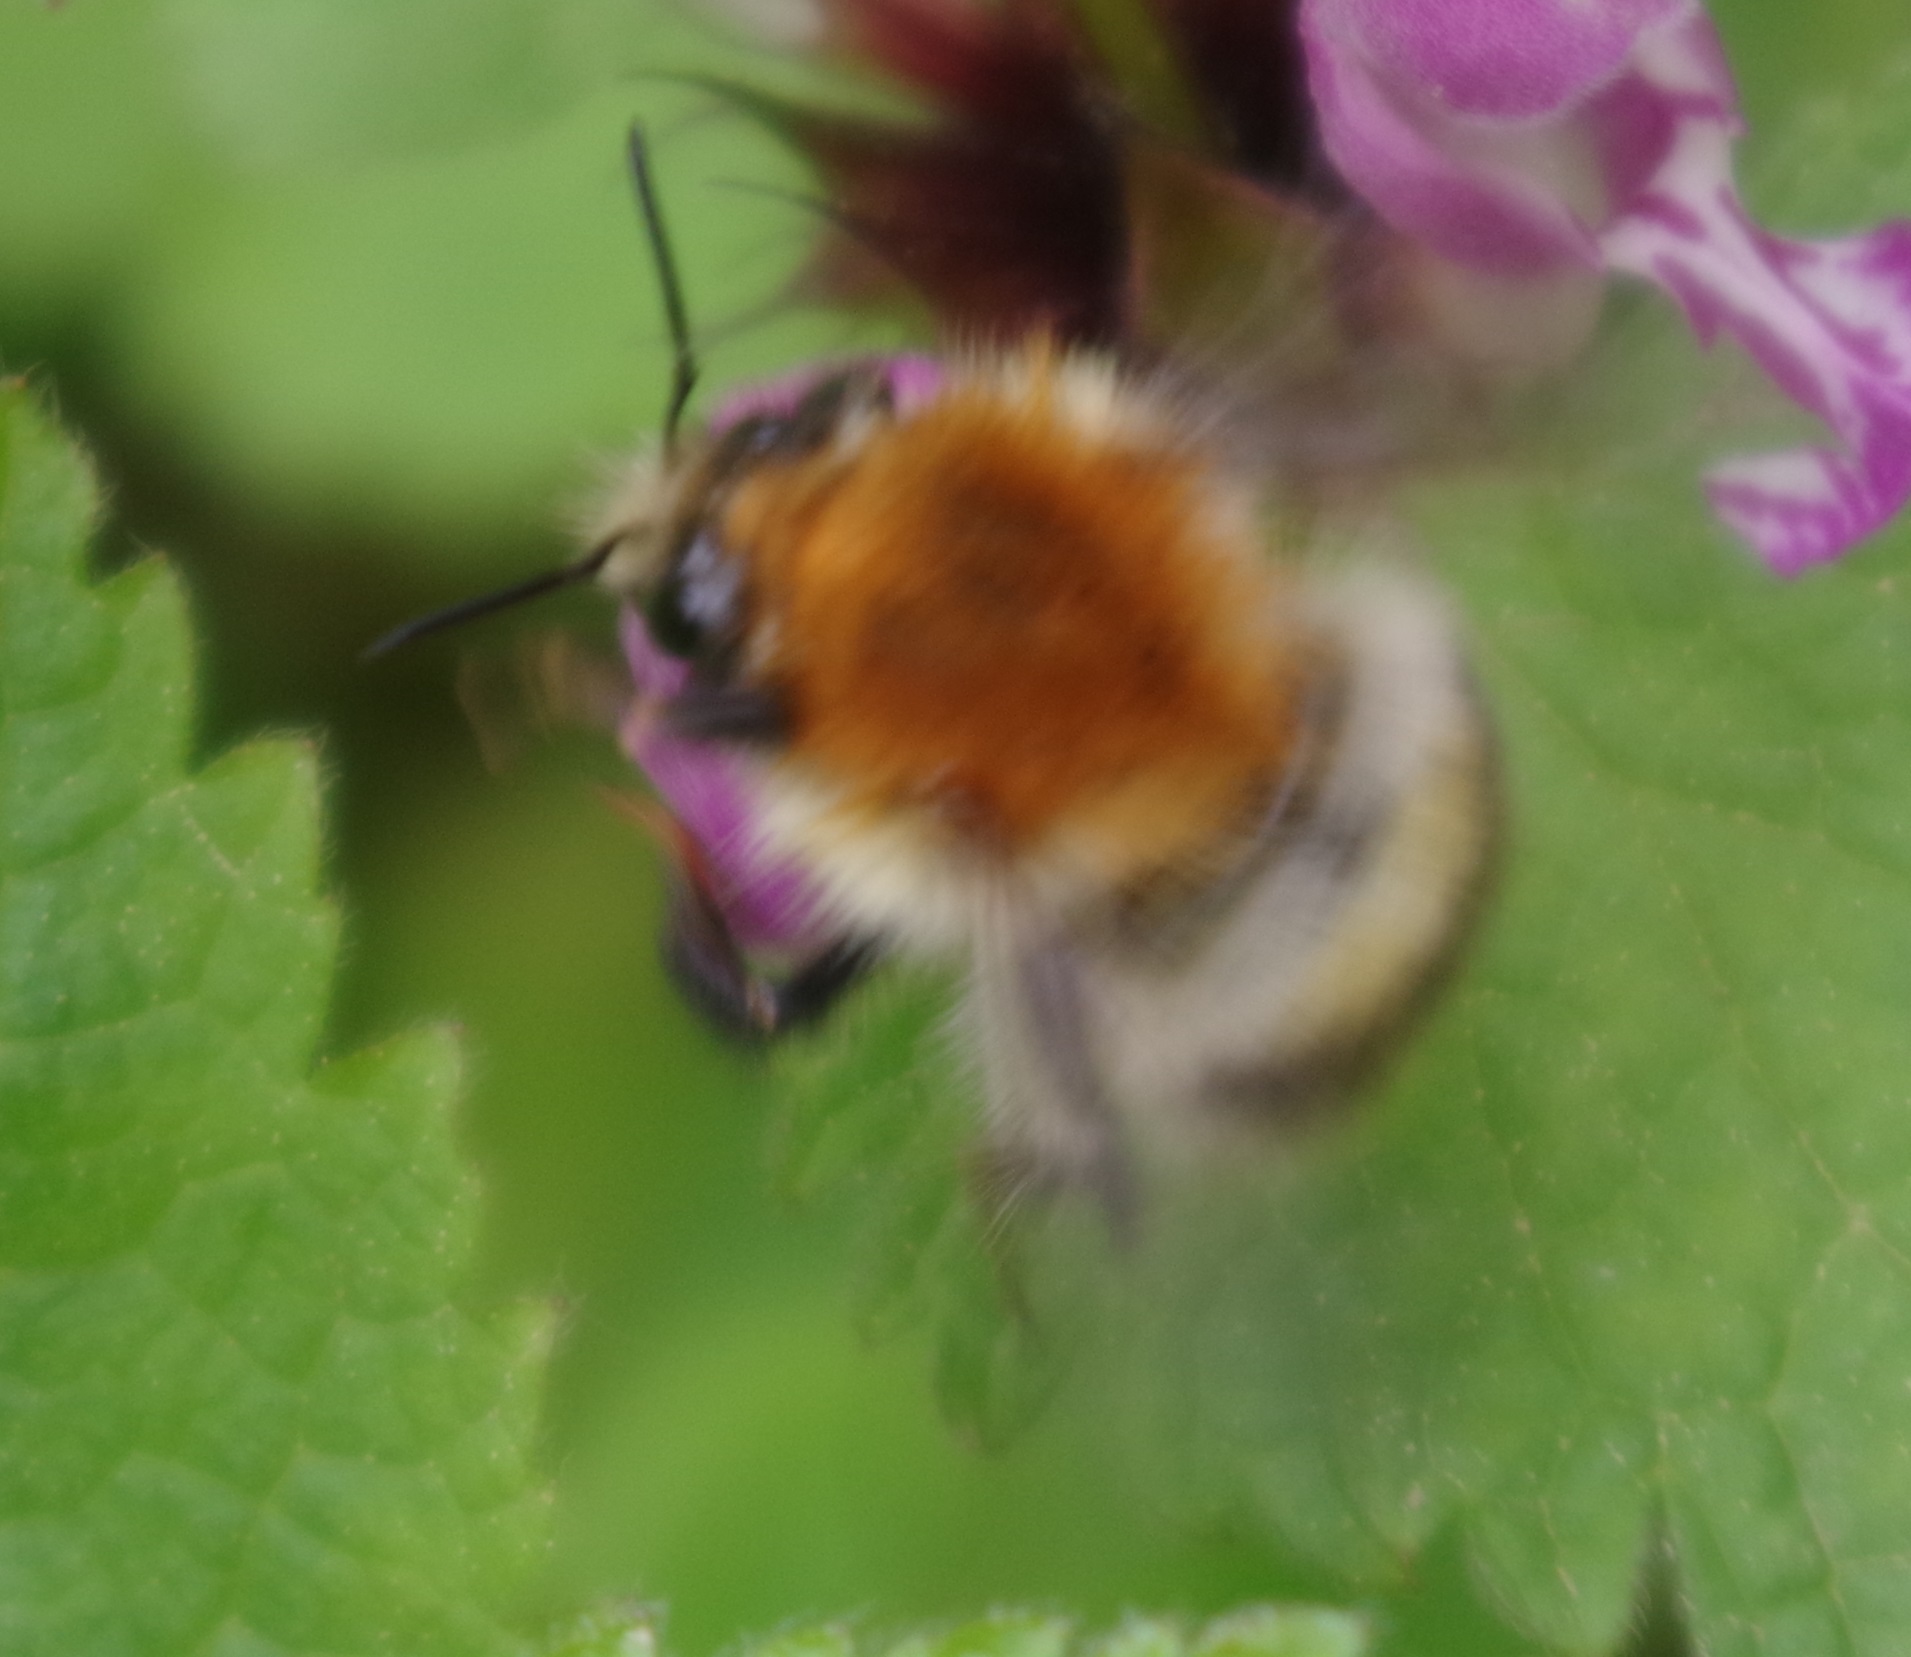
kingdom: Animalia
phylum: Arthropoda
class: Insecta
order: Hymenoptera
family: Apidae
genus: Bombus
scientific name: Bombus pascuorum
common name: Common carder bee
